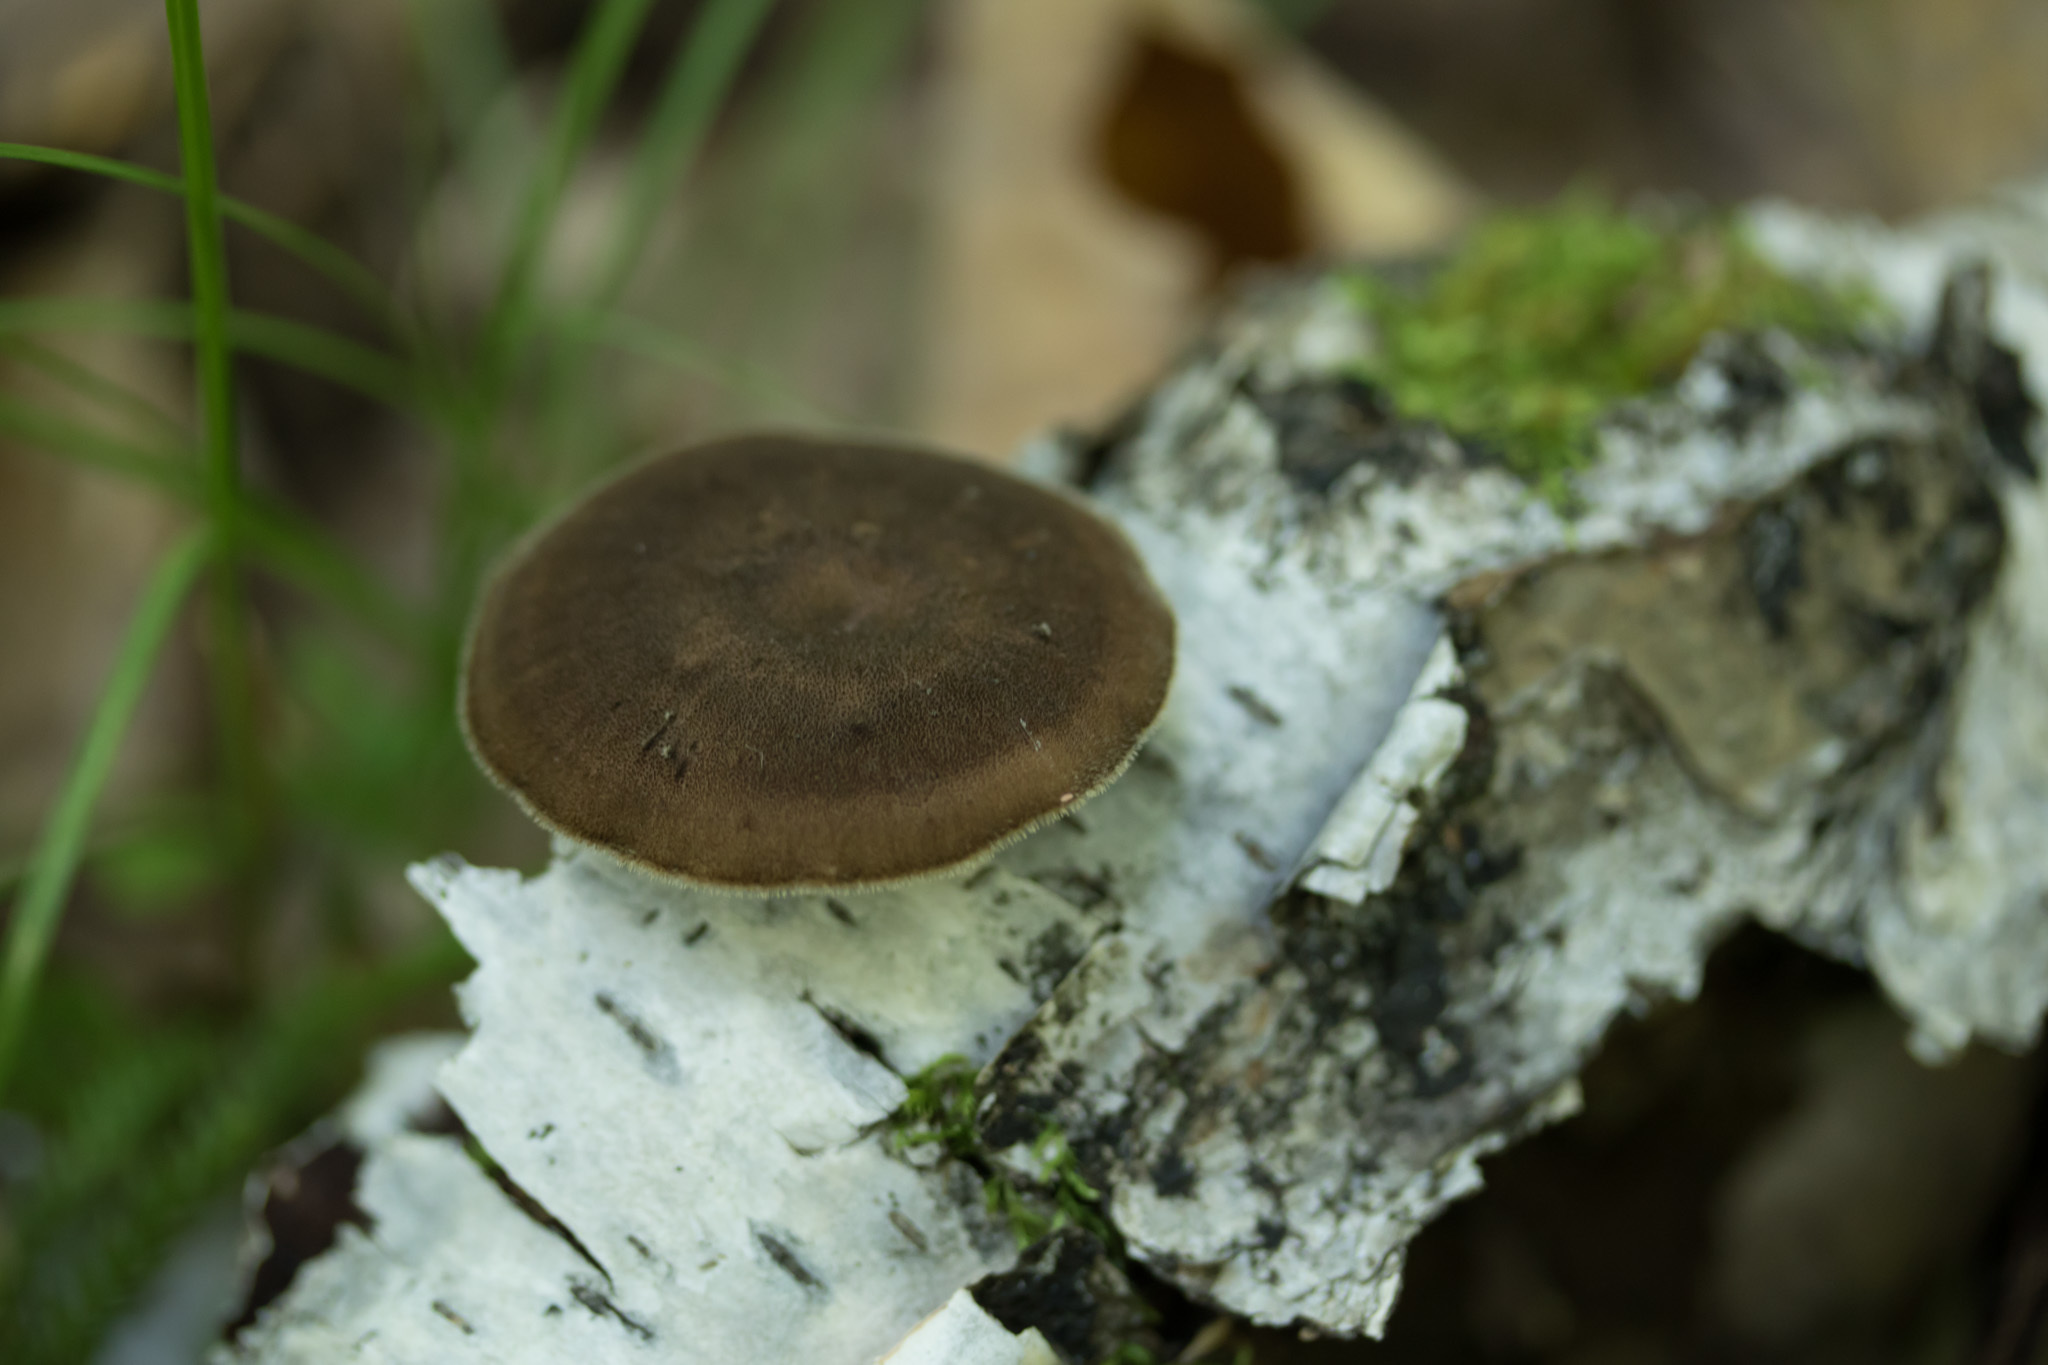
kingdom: Fungi
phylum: Basidiomycota
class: Agaricomycetes
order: Polyporales
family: Polyporaceae
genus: Lentinus
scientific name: Lentinus brumalis
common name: Winter polypore
